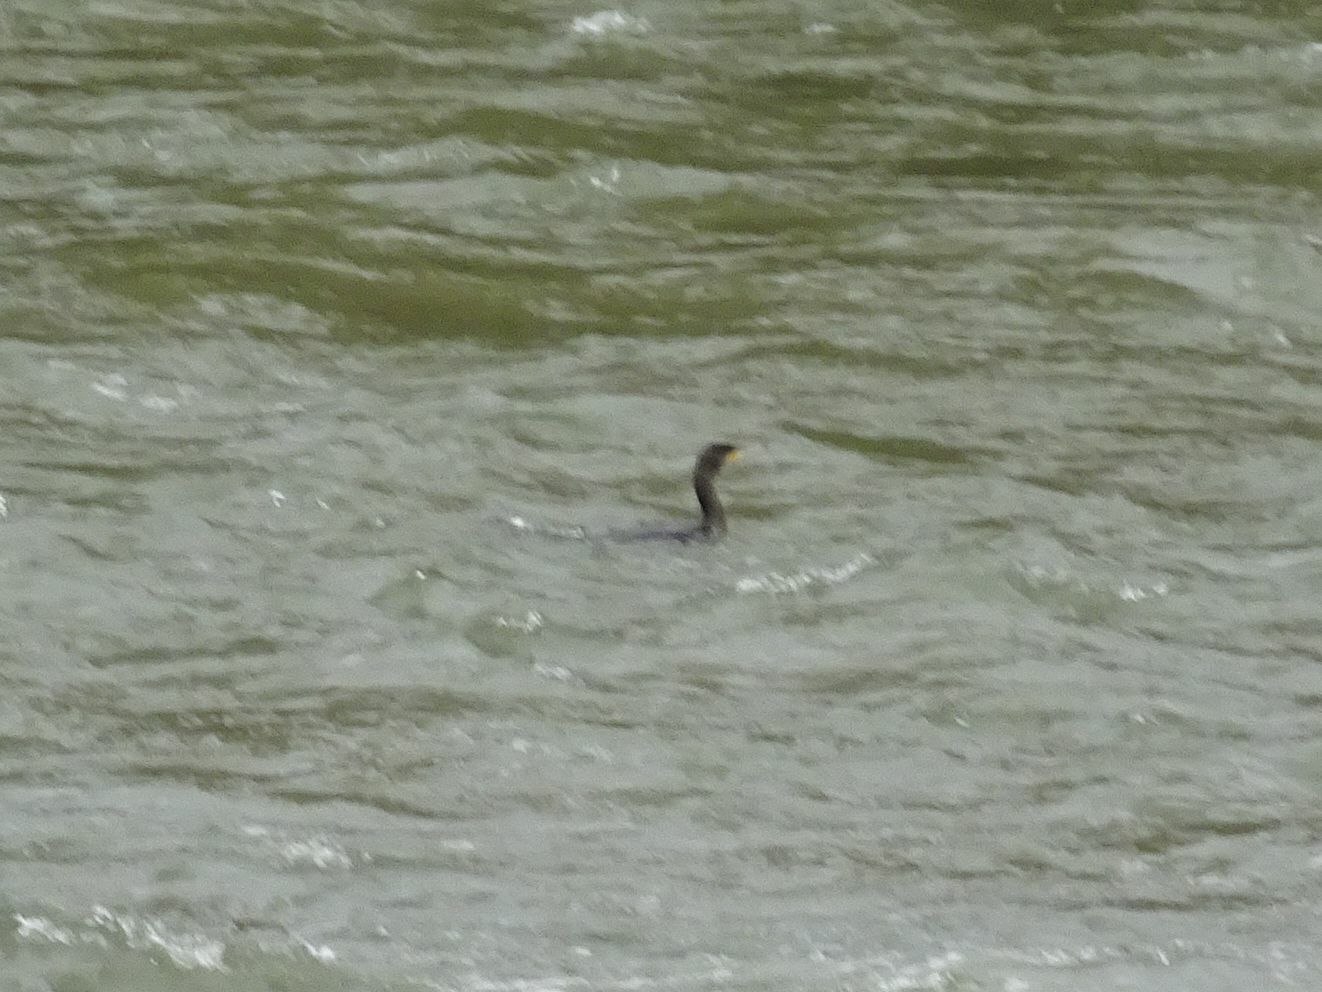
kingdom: Animalia
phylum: Chordata
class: Aves
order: Suliformes
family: Phalacrocoracidae
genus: Phalacrocorax
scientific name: Phalacrocorax carbo
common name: Great cormorant
